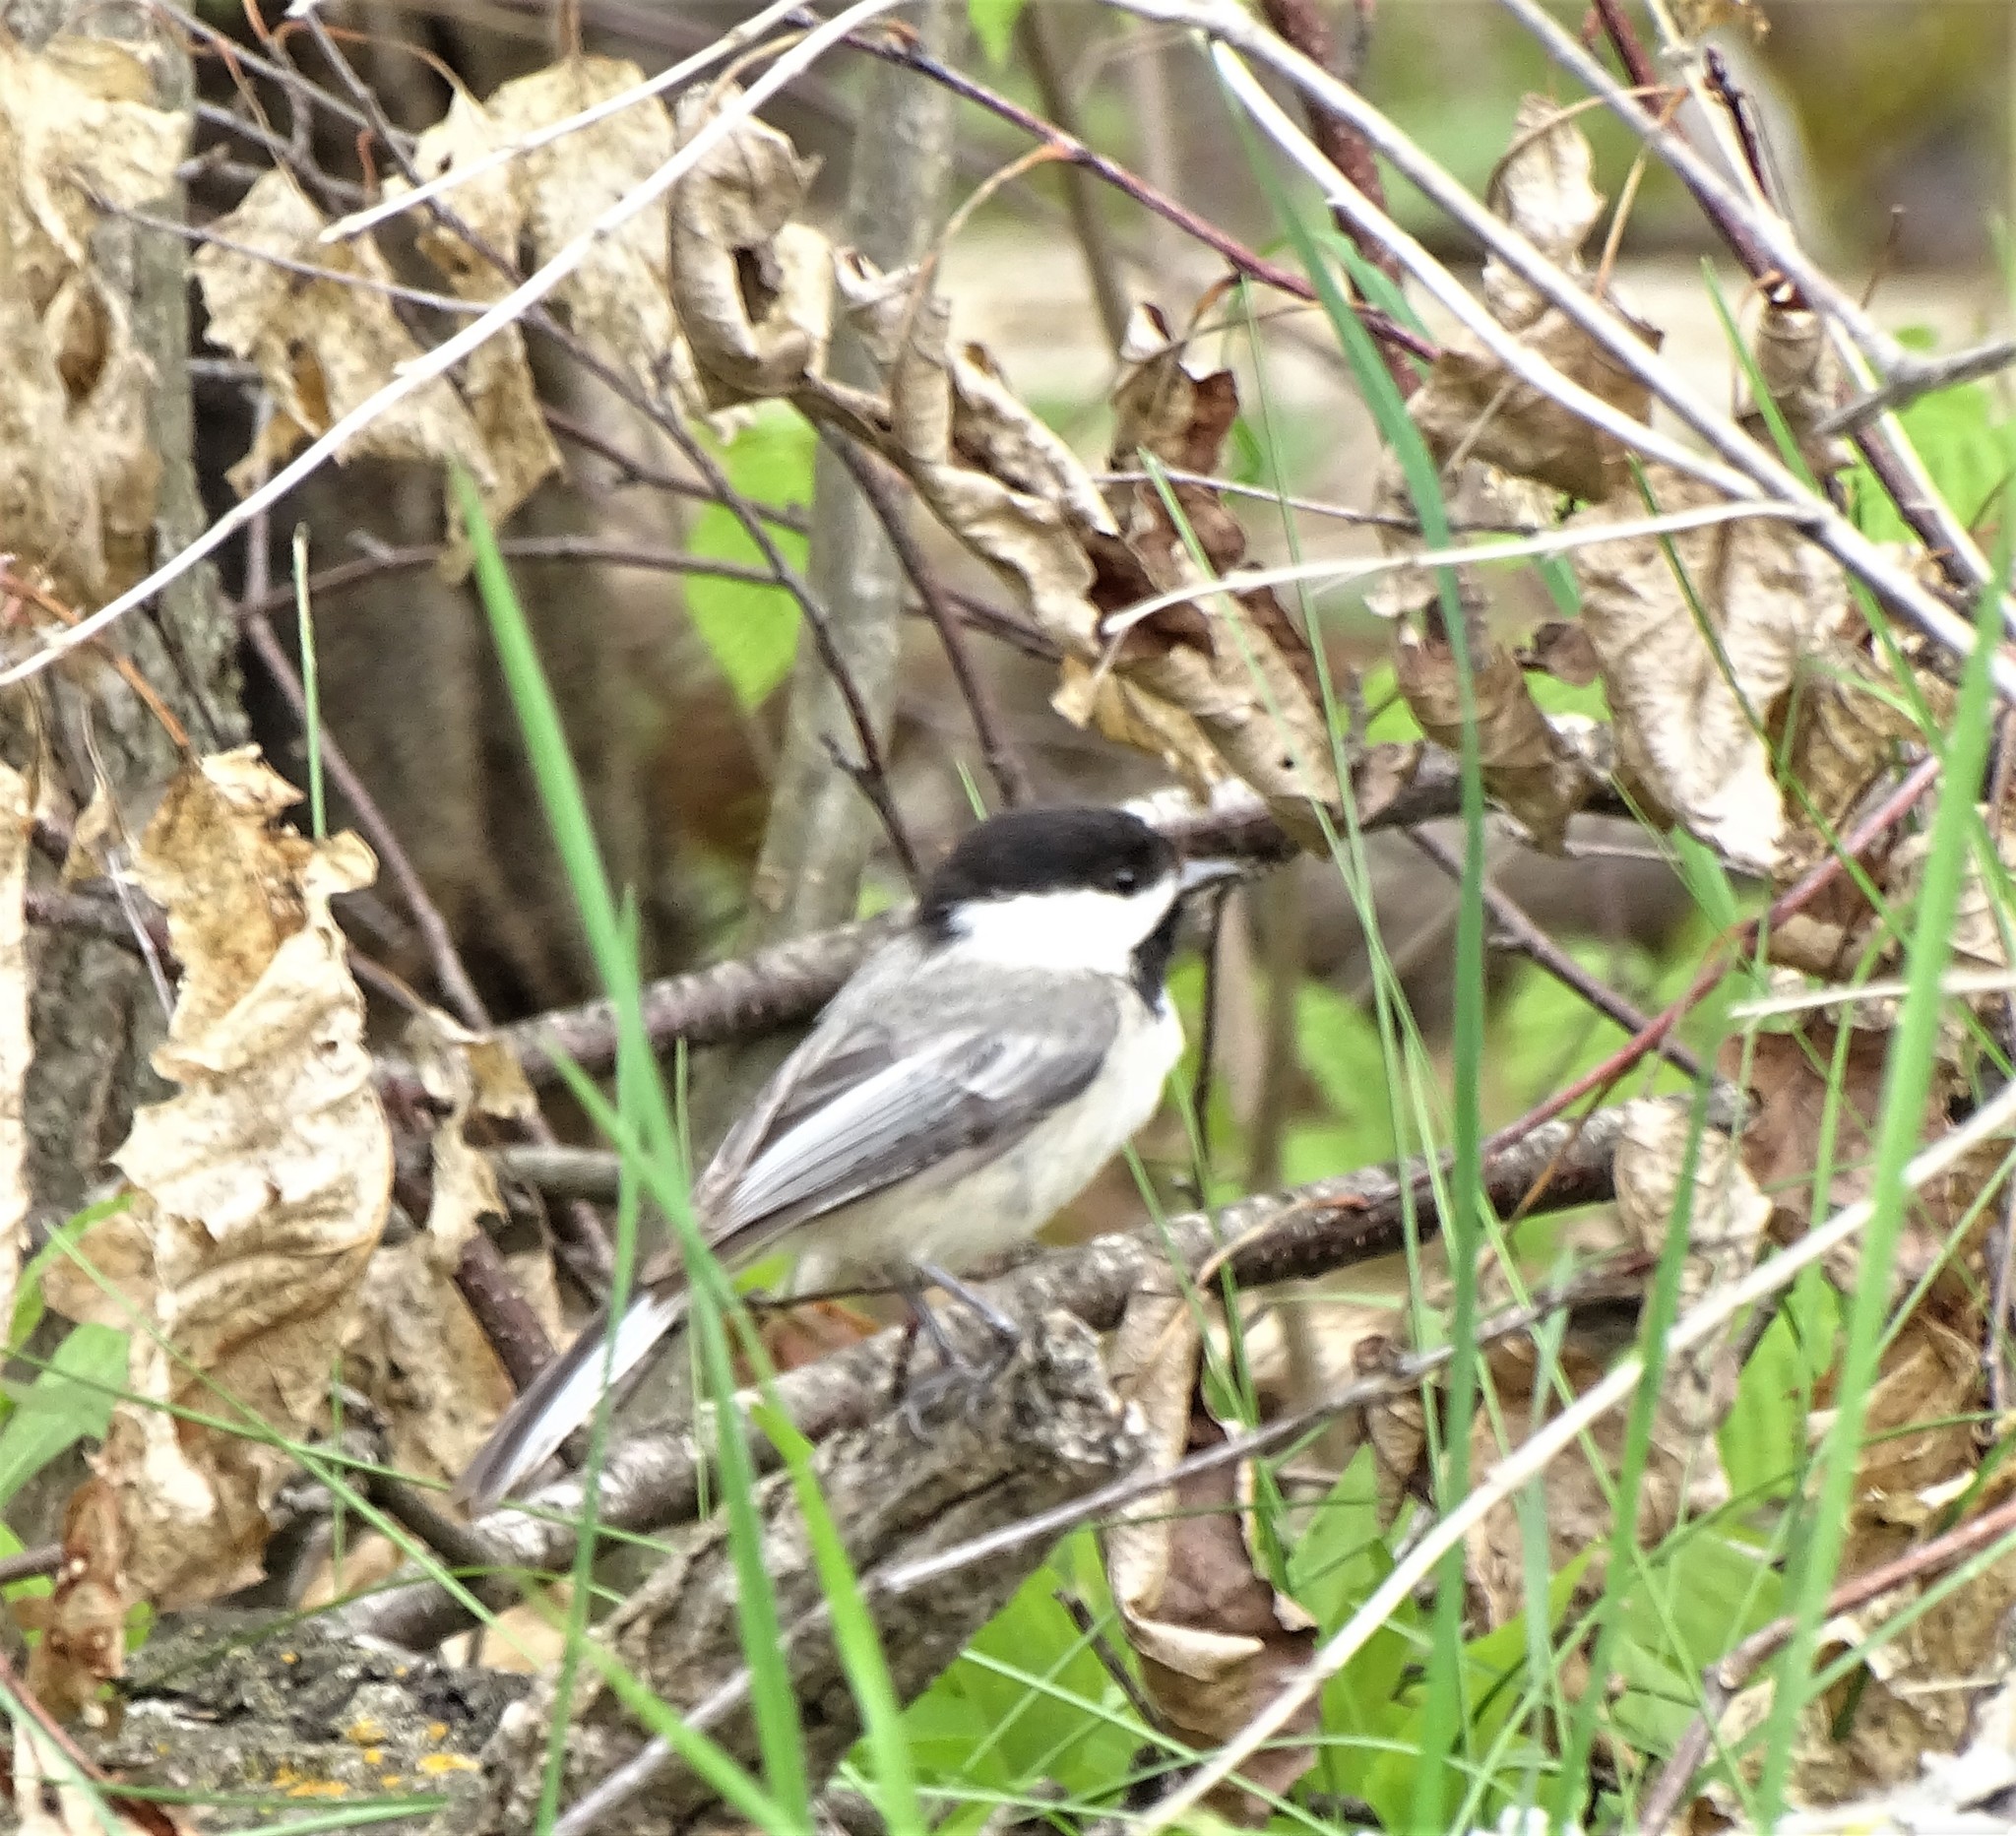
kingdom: Animalia
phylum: Chordata
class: Aves
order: Passeriformes
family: Paridae
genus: Poecile
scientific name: Poecile atricapillus
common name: Black-capped chickadee
